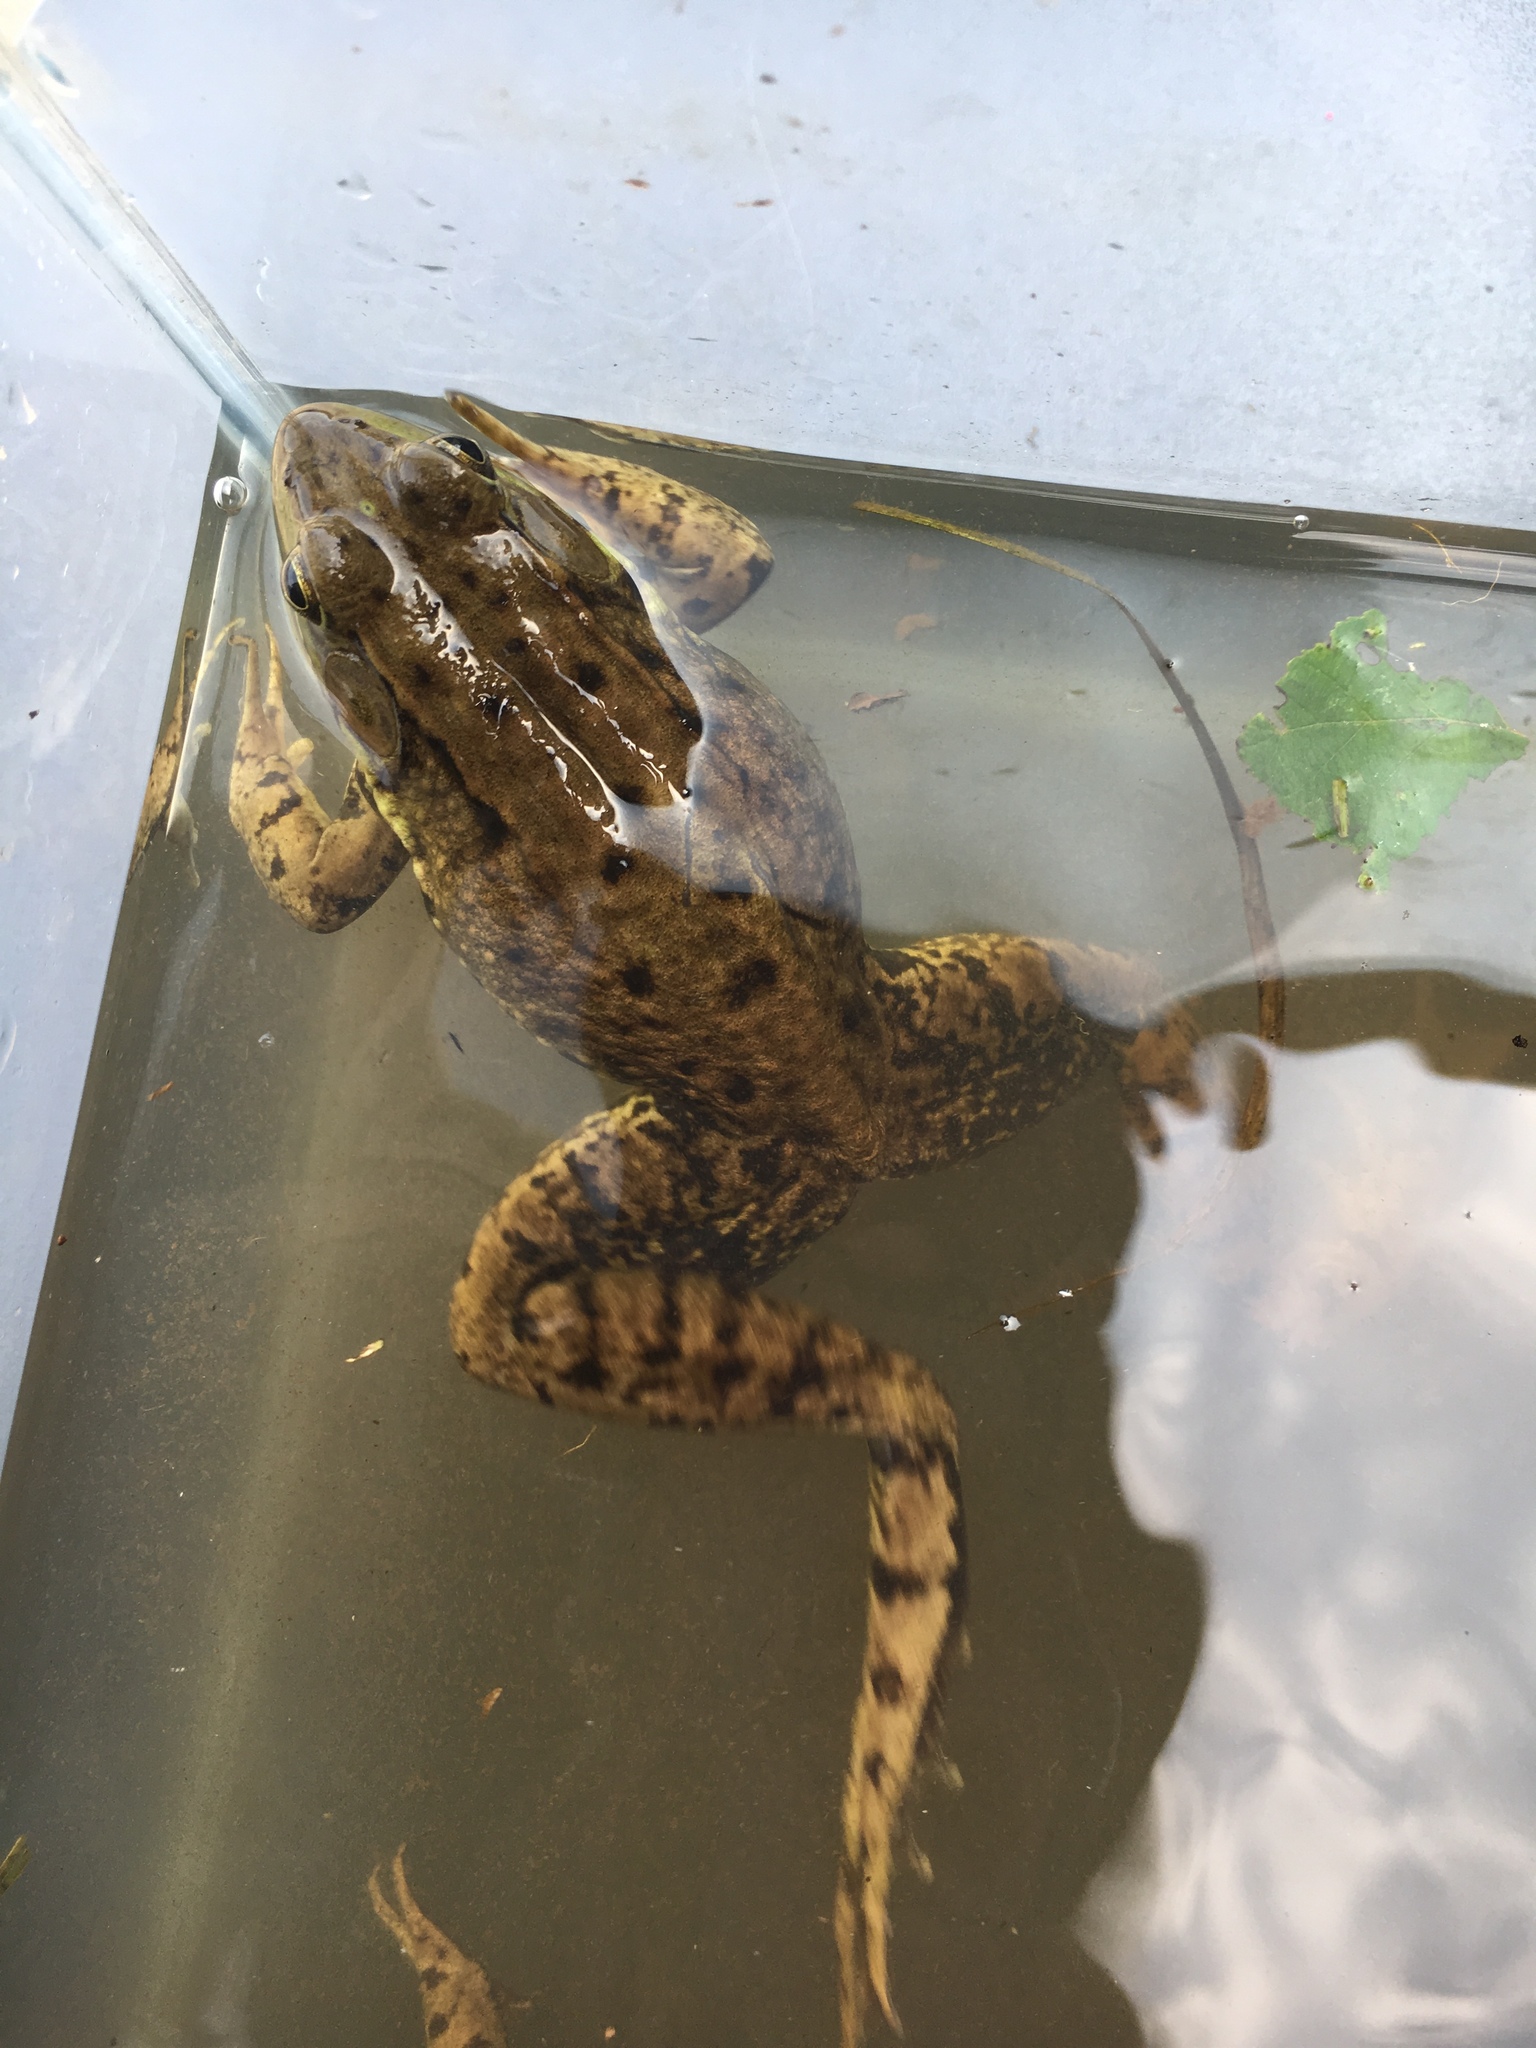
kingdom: Animalia
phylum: Chordata
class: Amphibia
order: Anura
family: Ranidae
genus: Lithobates
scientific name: Lithobates clamitans
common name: Green frog
